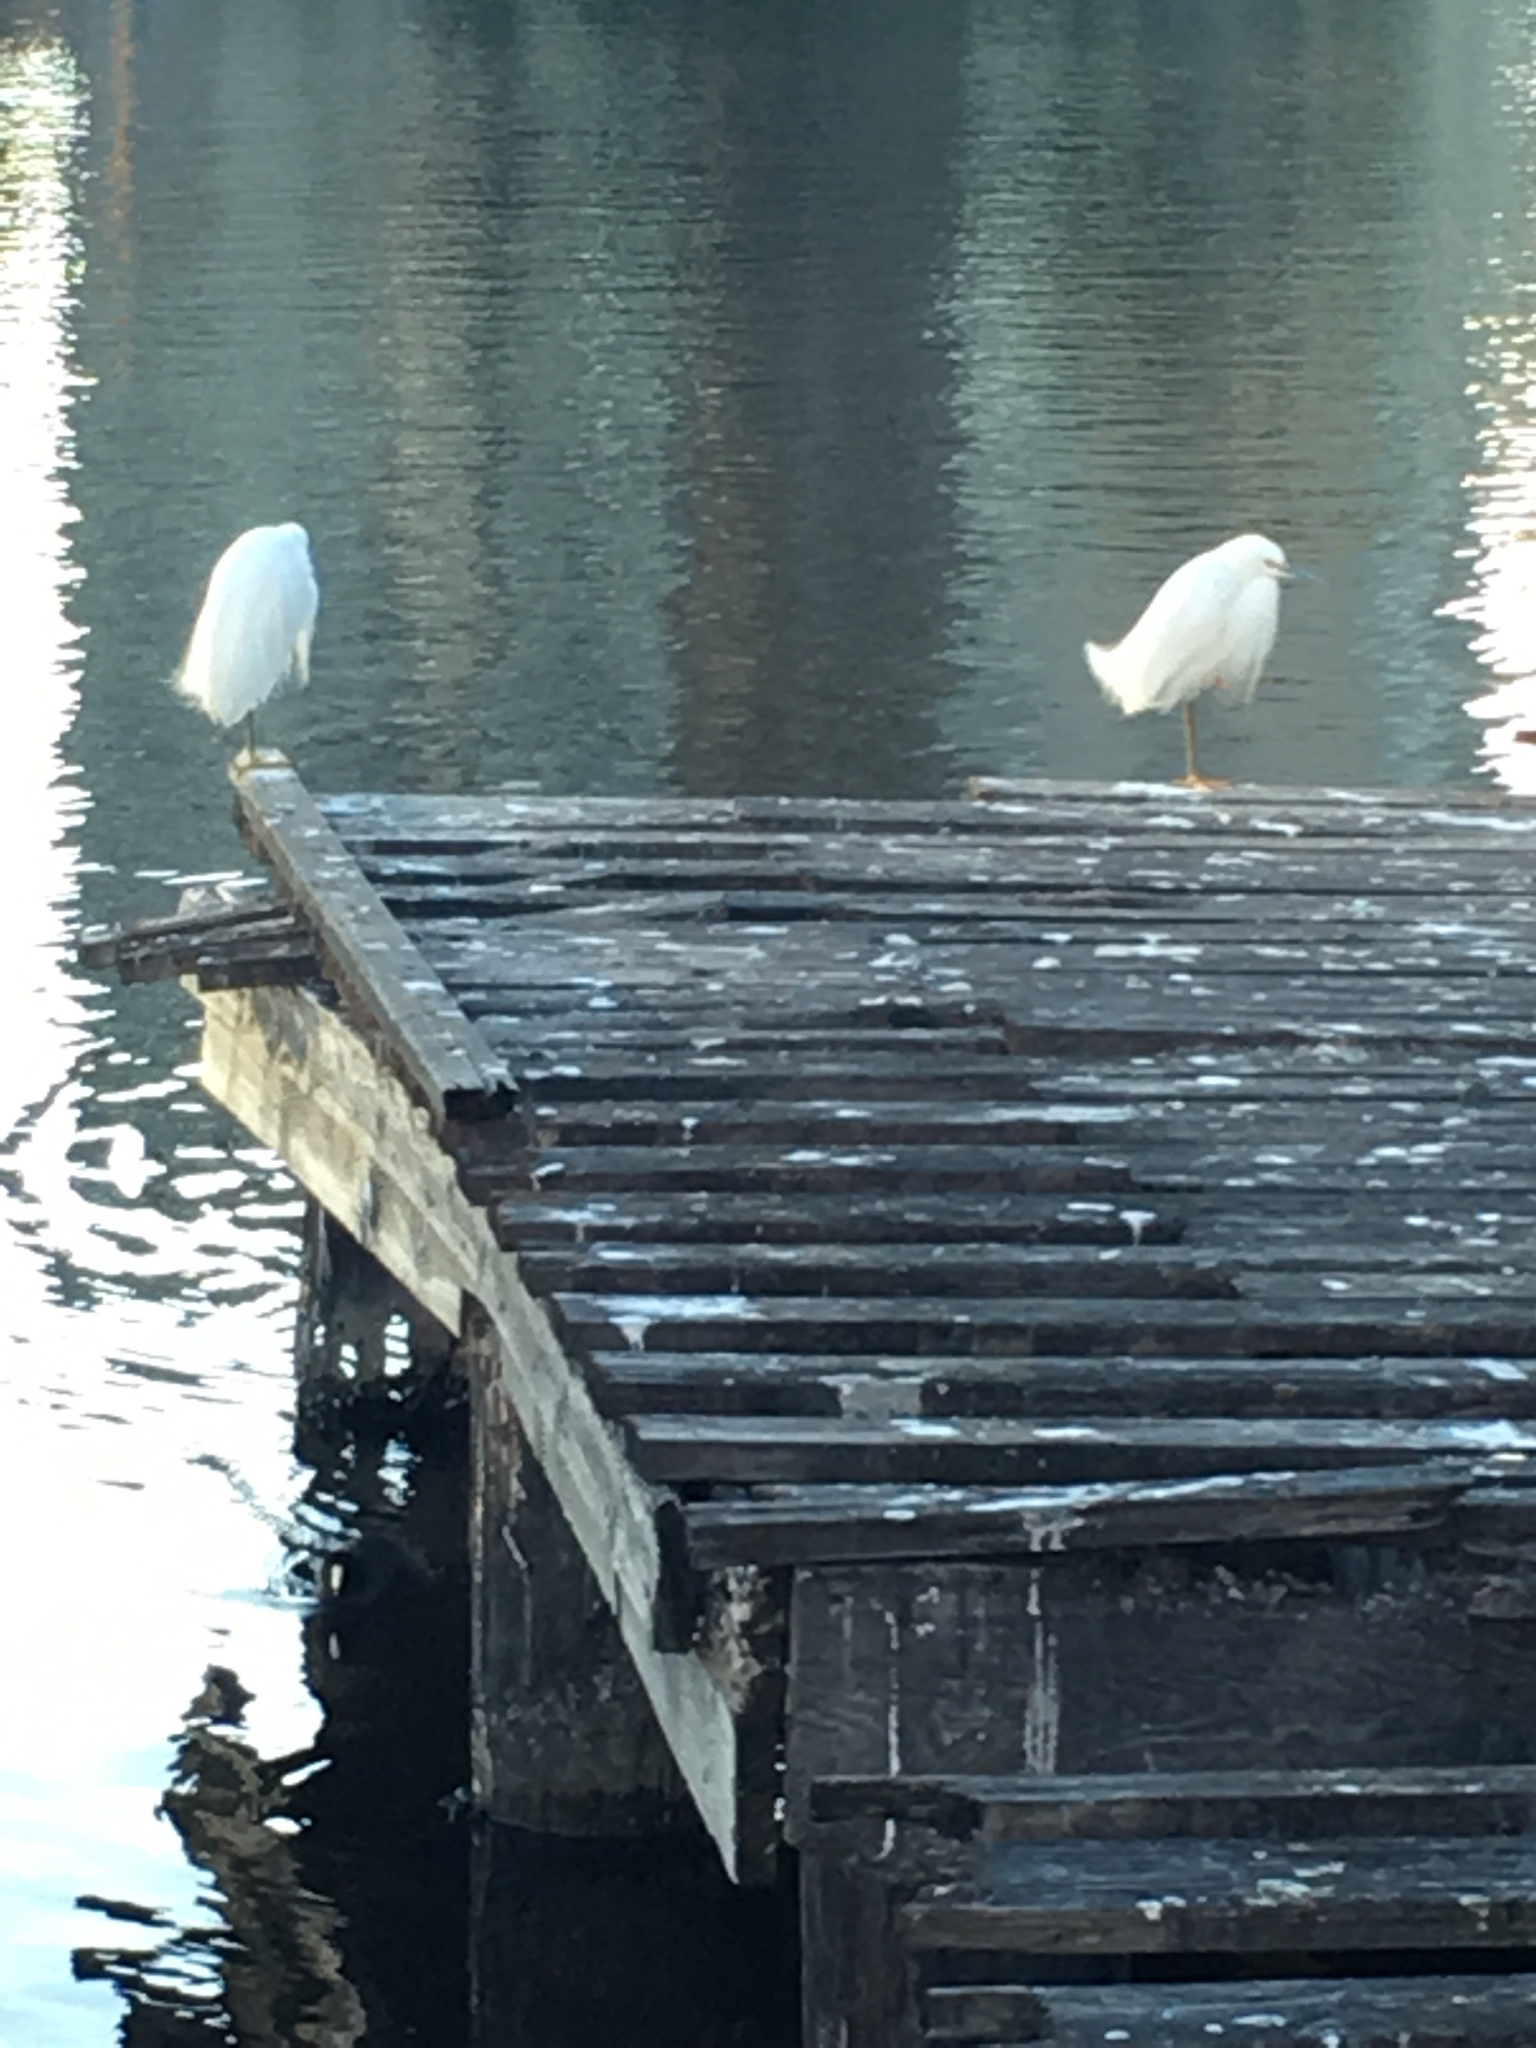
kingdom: Animalia
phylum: Chordata
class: Aves
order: Pelecaniformes
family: Ardeidae
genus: Egretta
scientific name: Egretta thula
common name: Snowy egret
